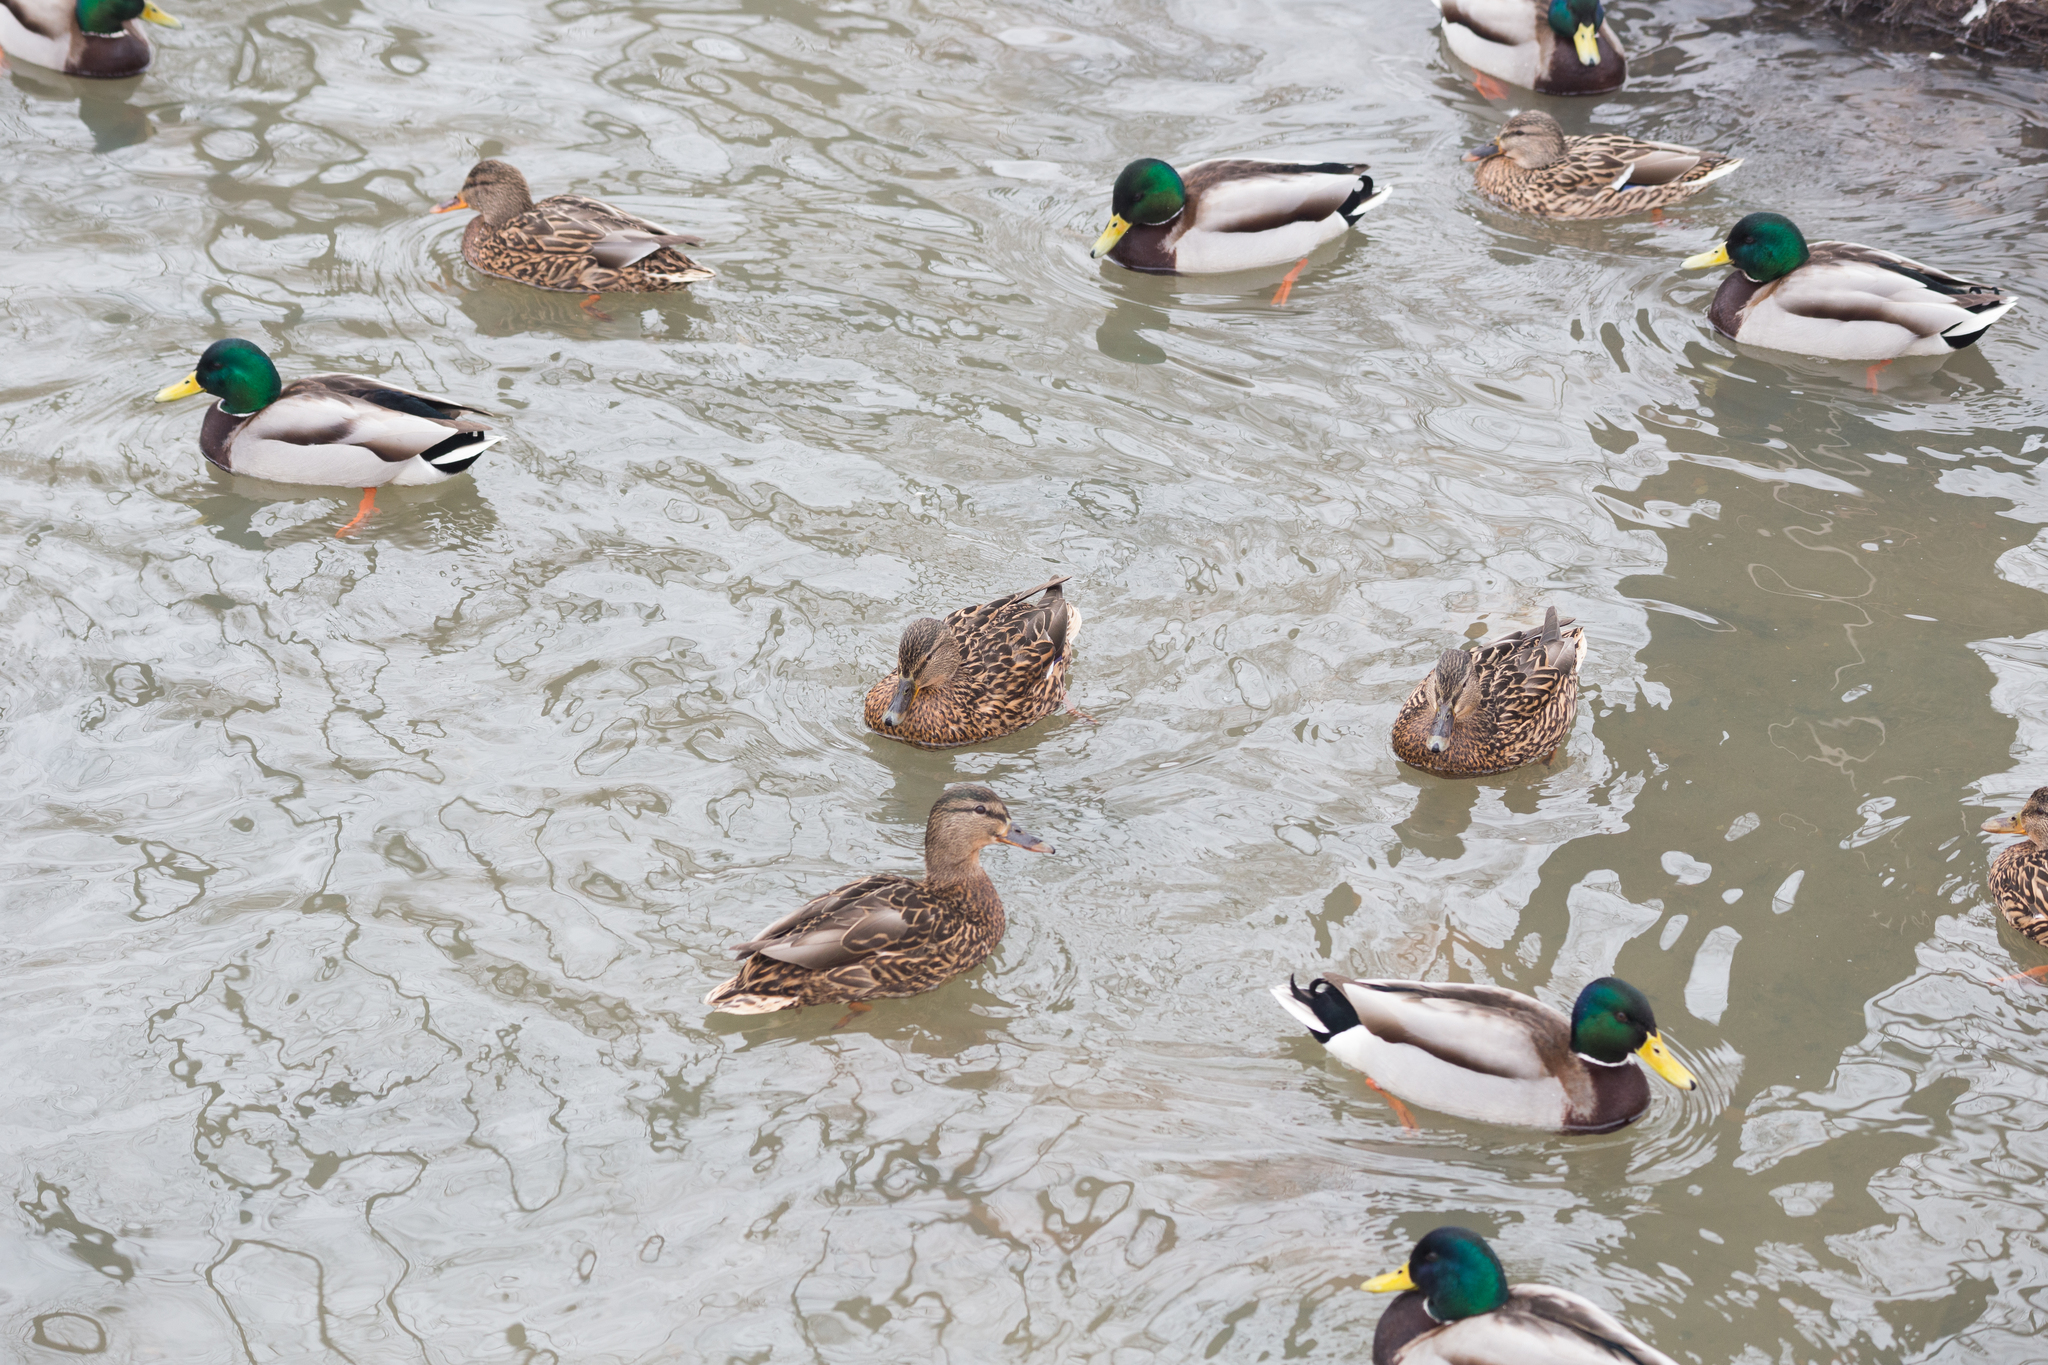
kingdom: Animalia
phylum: Chordata
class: Aves
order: Anseriformes
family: Anatidae
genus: Anas
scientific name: Anas platyrhynchos
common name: Mallard
